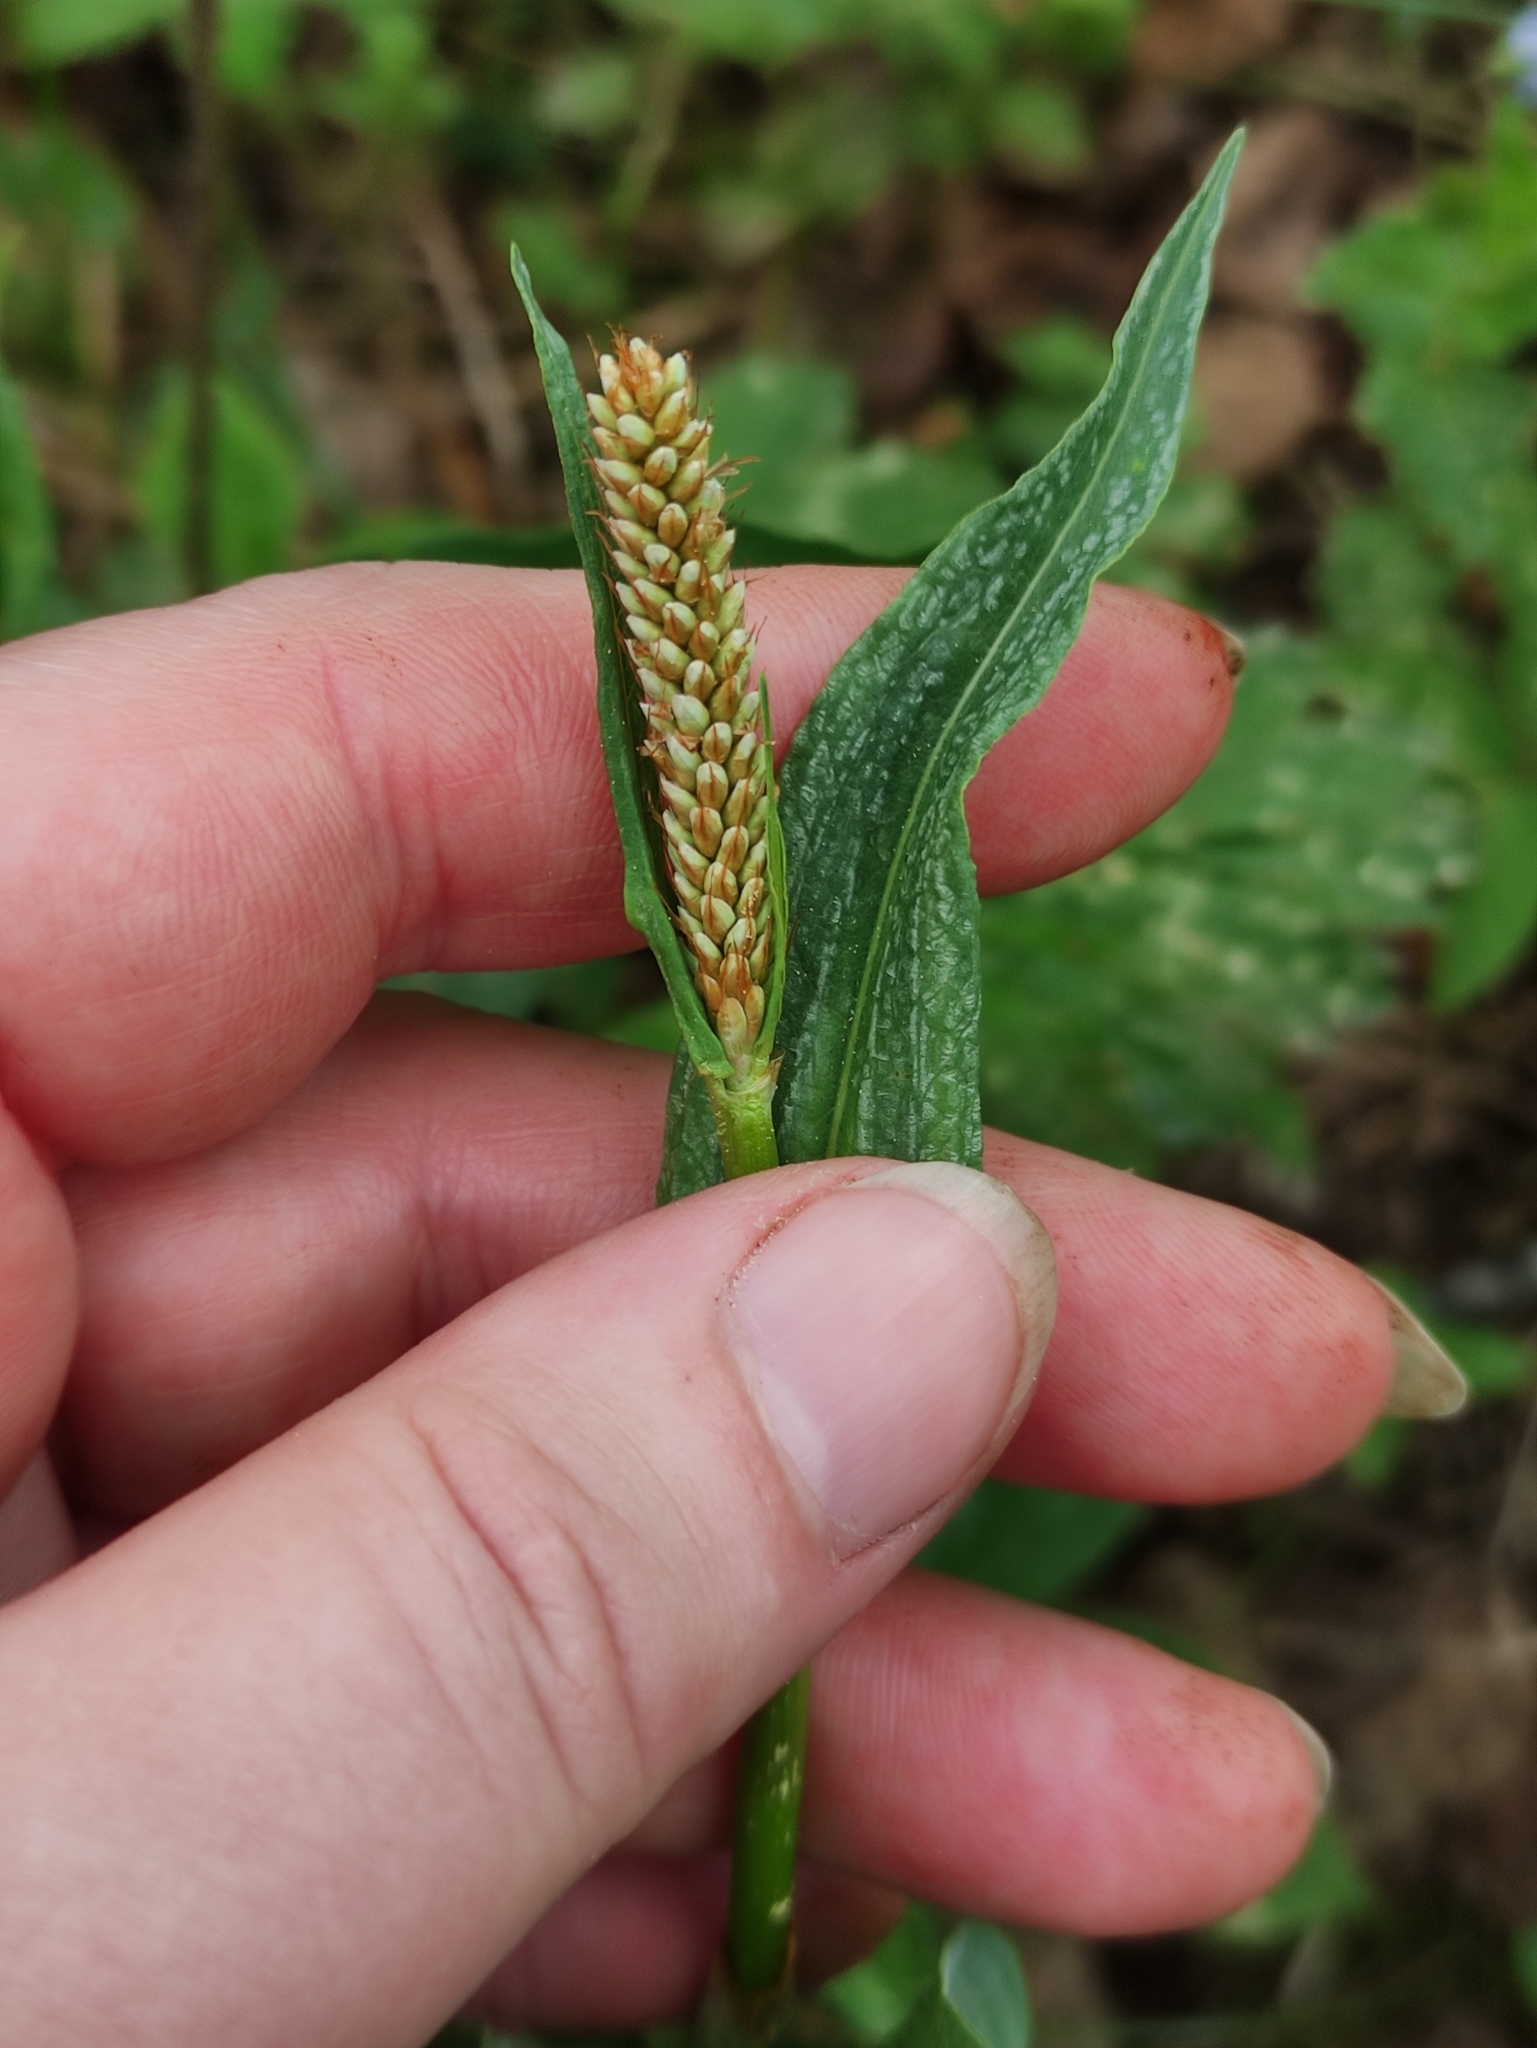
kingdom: Plantae
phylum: Tracheophyta
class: Magnoliopsida
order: Caryophyllales
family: Polygonaceae
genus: Bistorta
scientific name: Bistorta officinalis
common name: Common bistort
